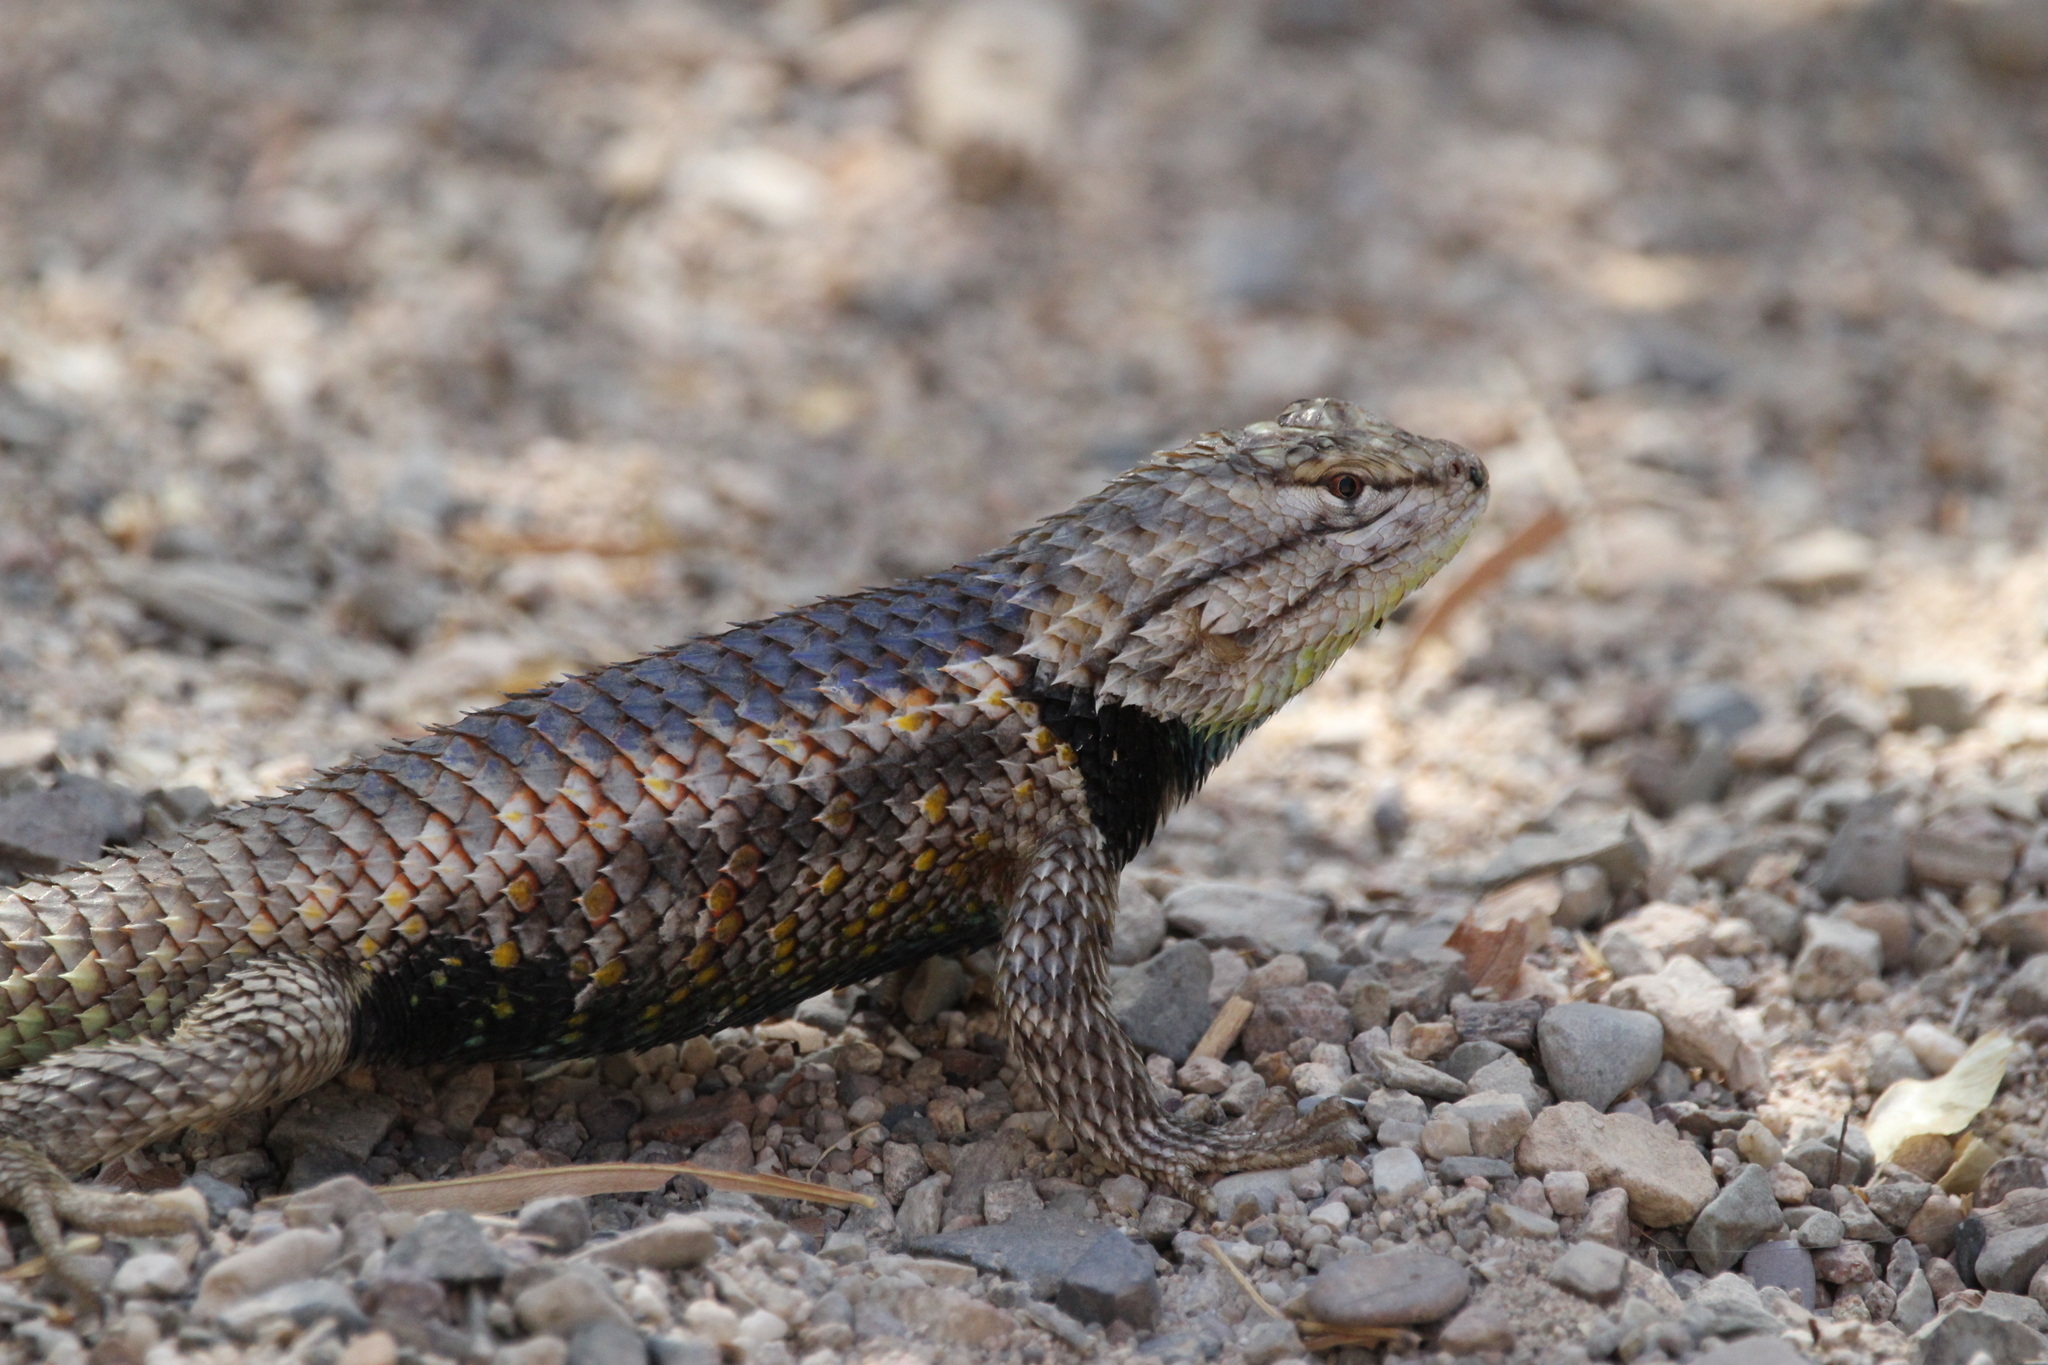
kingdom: Animalia
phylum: Chordata
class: Squamata
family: Phrynosomatidae
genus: Sceloporus
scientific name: Sceloporus magister
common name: Desert spiny lizard
